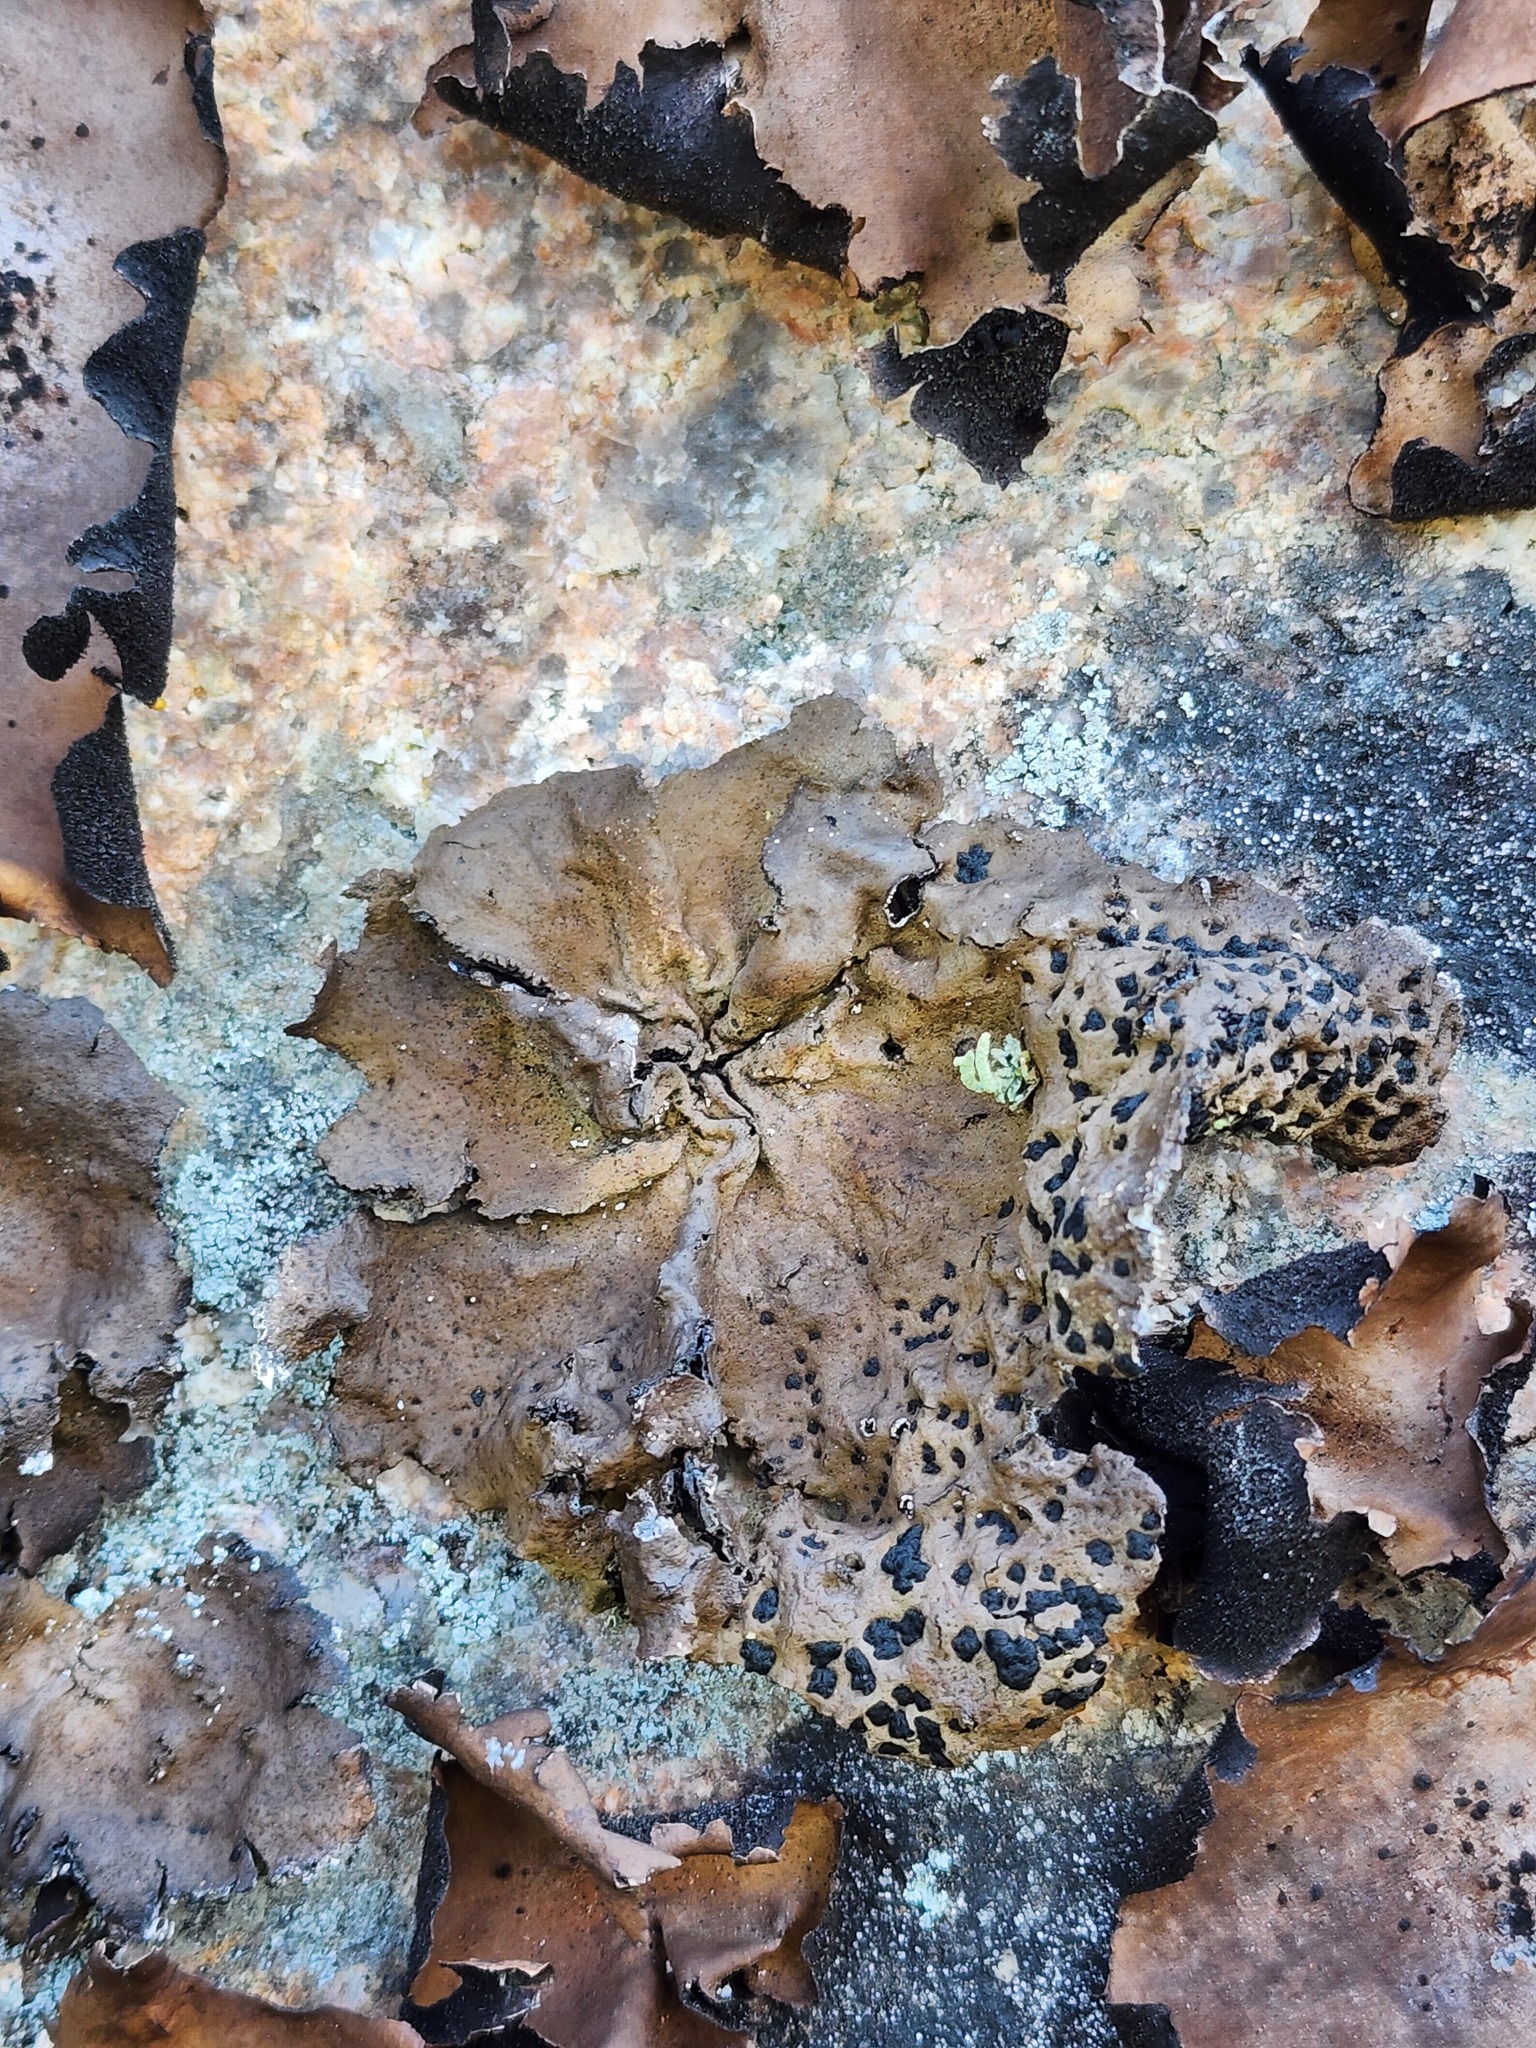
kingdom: Fungi
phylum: Ascomycota
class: Lecanoromycetes
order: Umbilicariales
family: Umbilicariaceae
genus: Umbilicaria
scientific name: Umbilicaria muhlenbergii
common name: Lesser rocktripe
